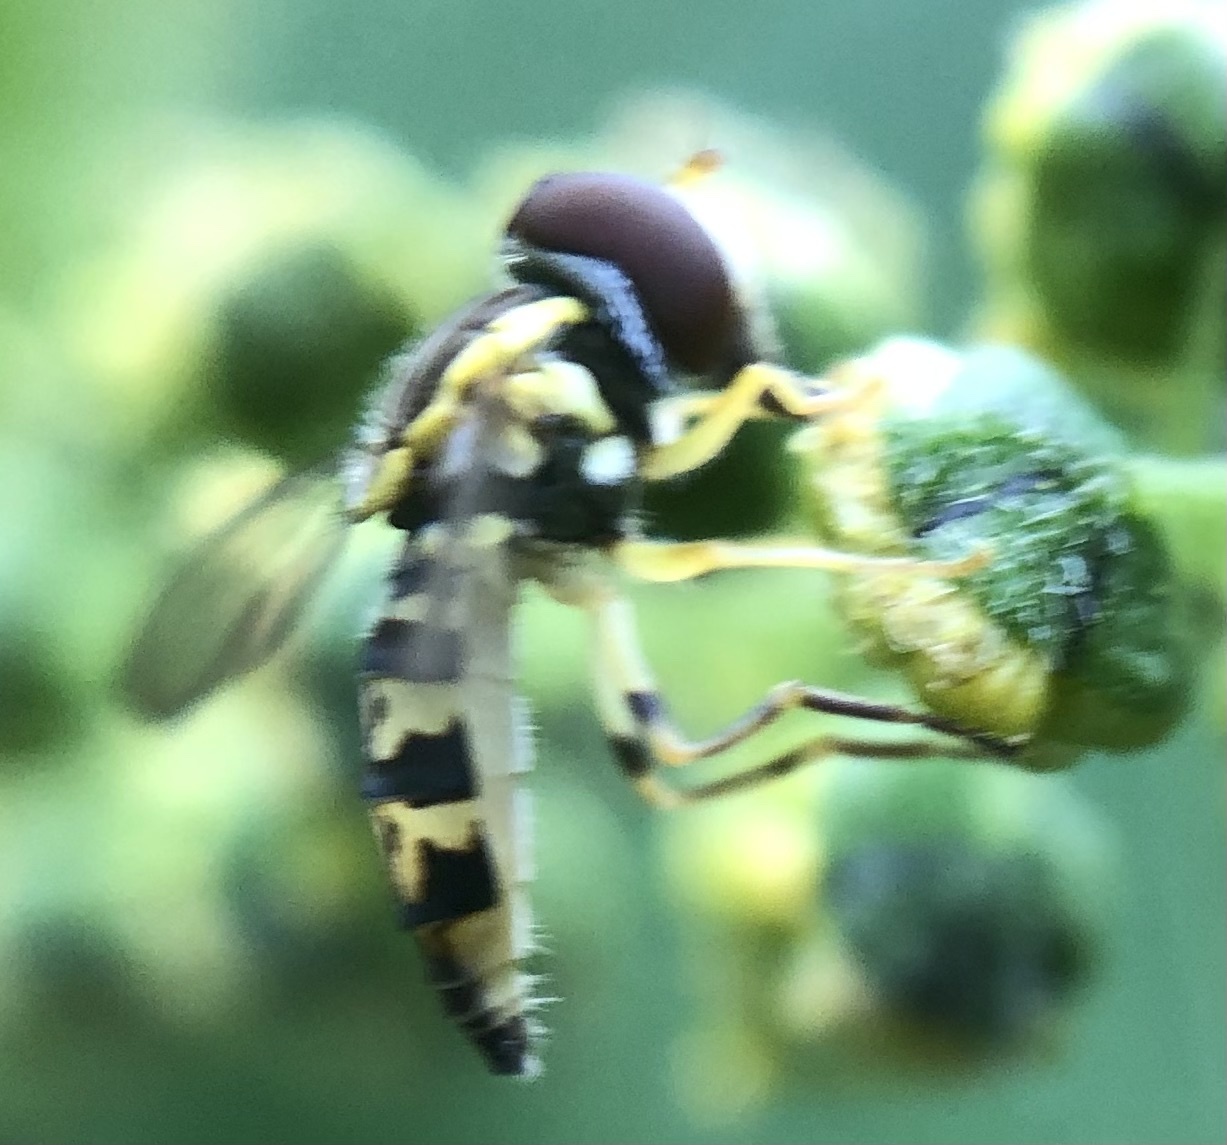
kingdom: Animalia
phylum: Arthropoda
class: Insecta
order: Diptera
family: Syrphidae
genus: Toxomerus
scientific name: Toxomerus geminatus
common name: Eastern calligrapher
